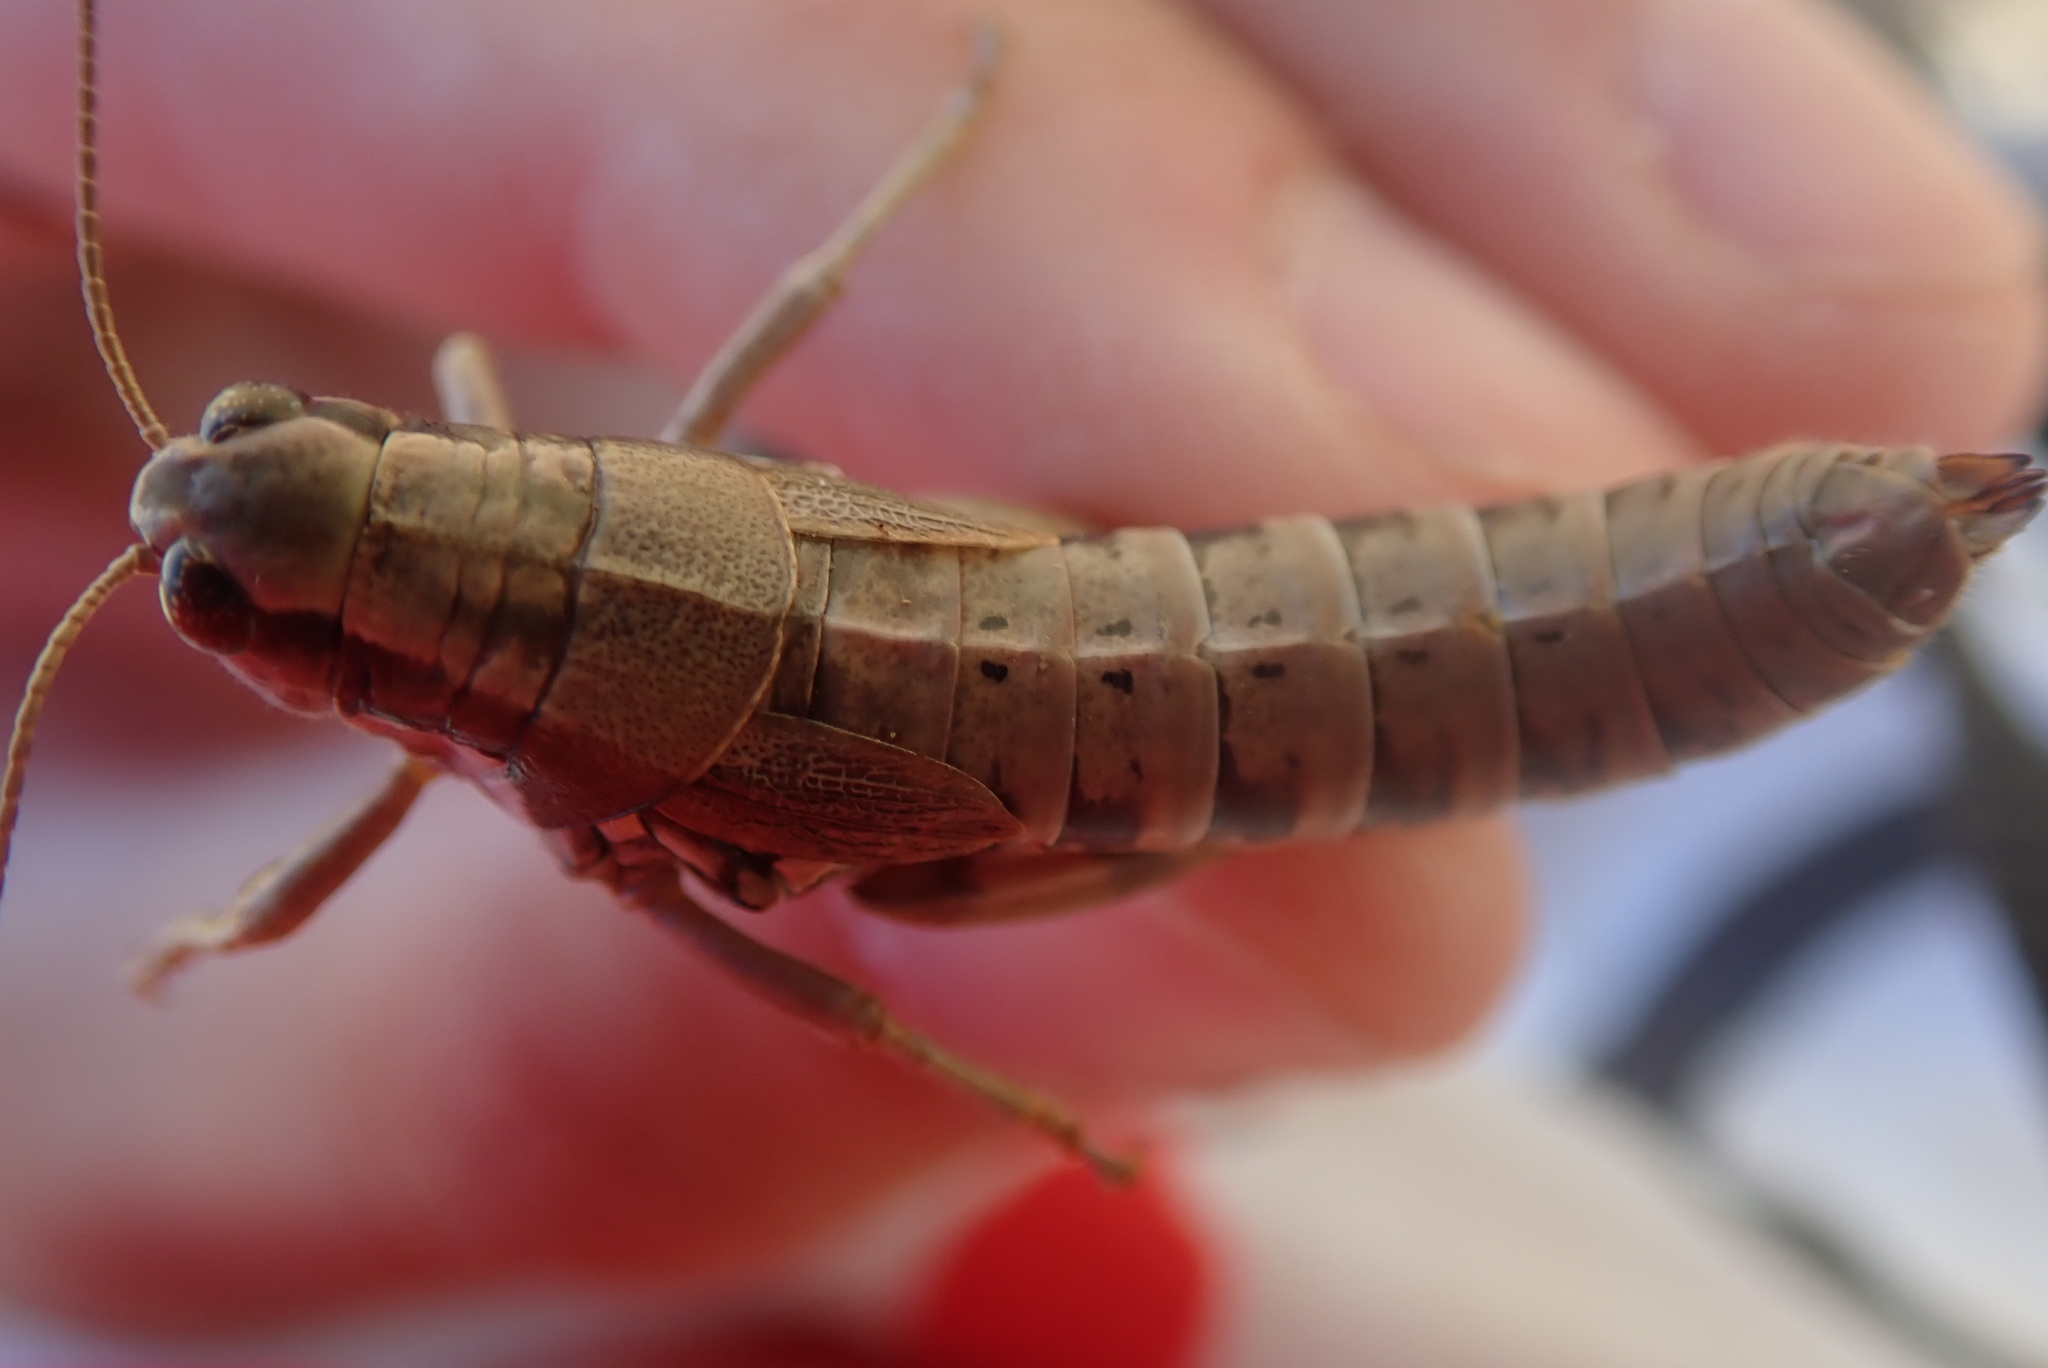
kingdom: Animalia
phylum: Arthropoda
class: Insecta
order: Orthoptera
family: Acrididae
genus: Podisma
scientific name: Podisma amedegnatoae
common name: Ventoux mountain grasshopper
